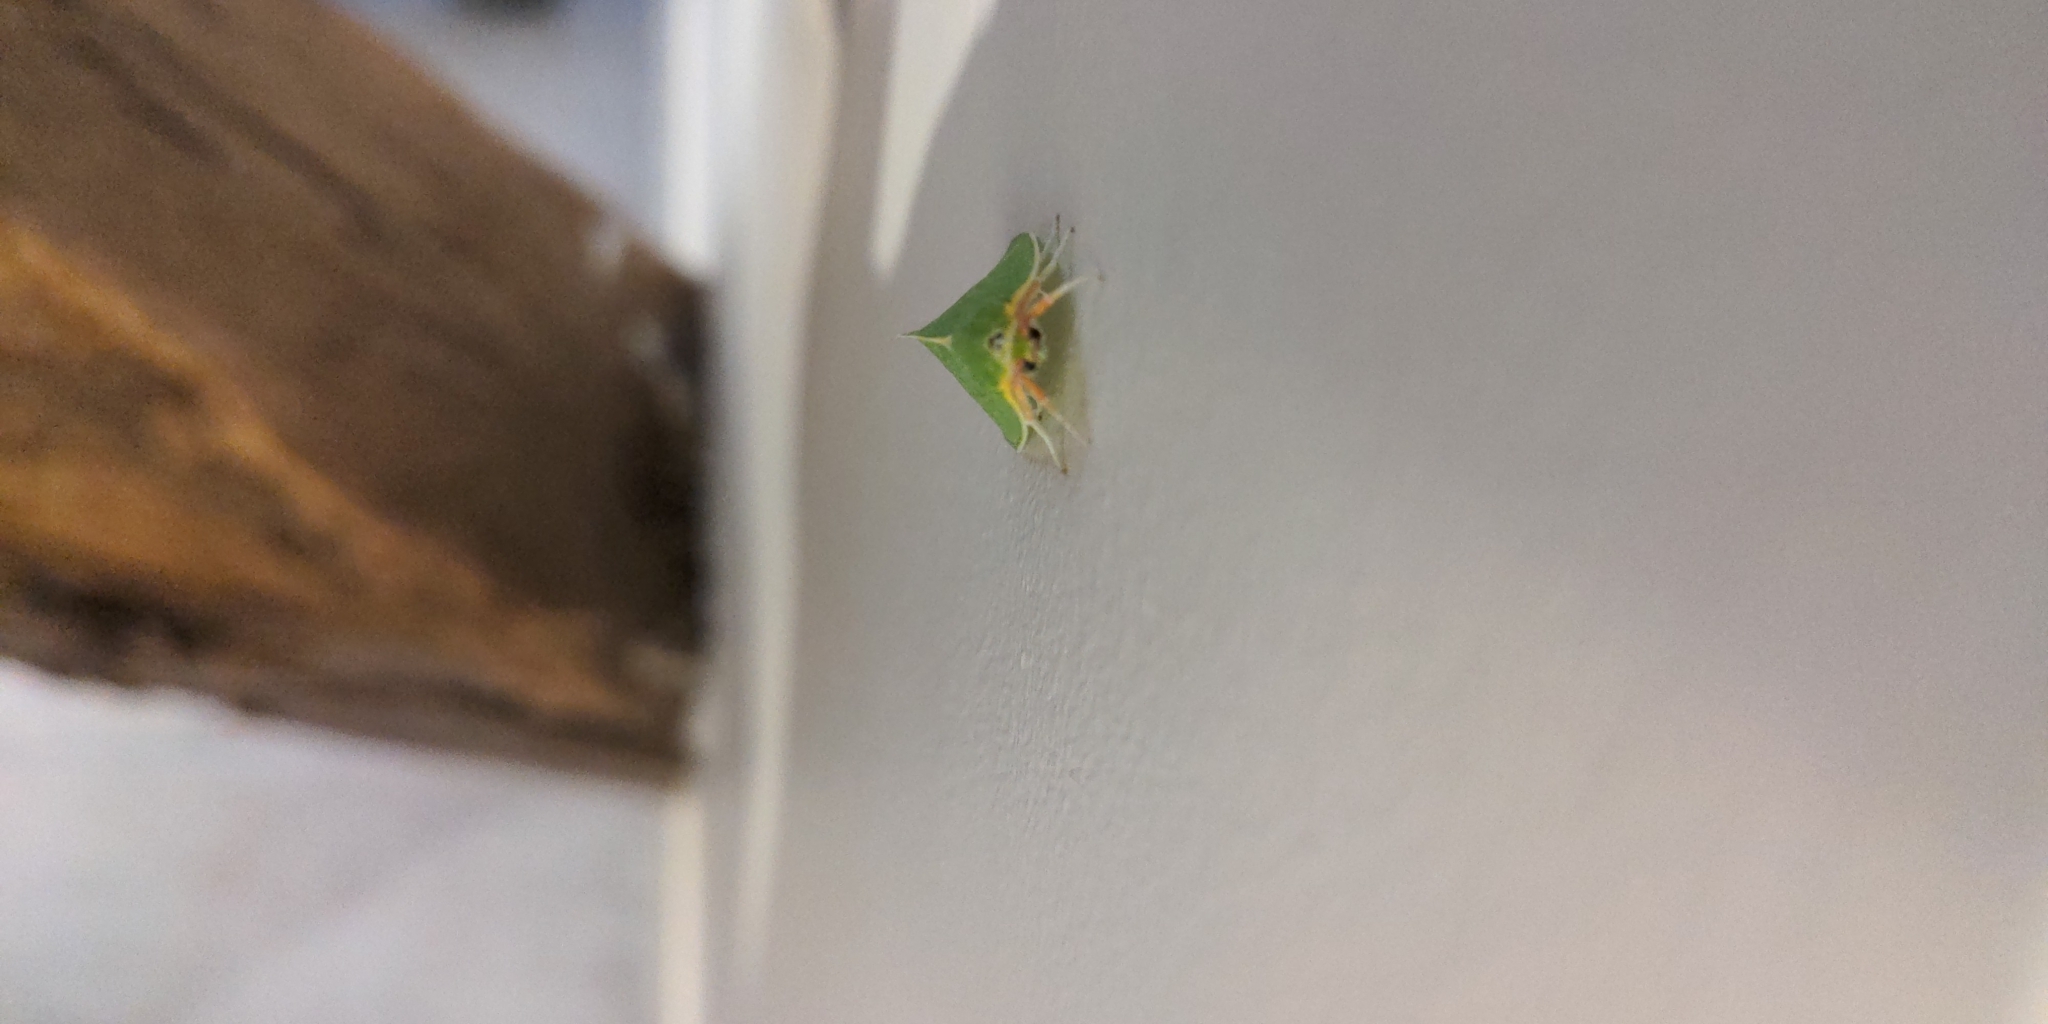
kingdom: Animalia
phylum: Arthropoda
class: Insecta
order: Lepidoptera
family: Nolidae
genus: Bena
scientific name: Bena bicolorana
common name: Scarce silver-lines
